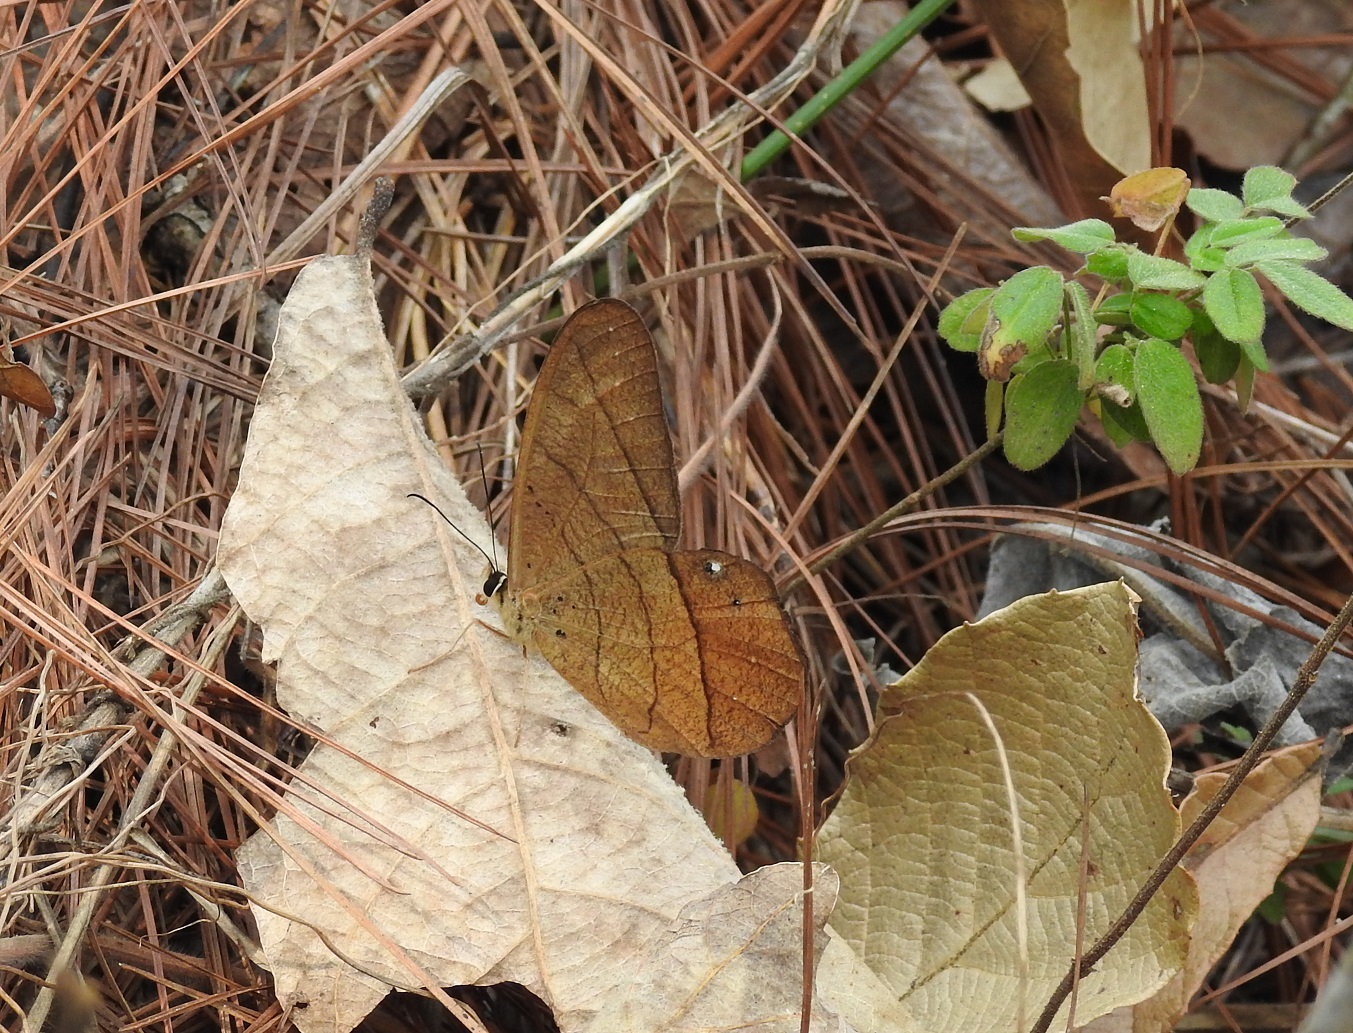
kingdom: Animalia
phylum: Arthropoda
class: Insecta
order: Lepidoptera
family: Nymphalidae
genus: Pierella
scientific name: Pierella luna
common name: Moon satyr
